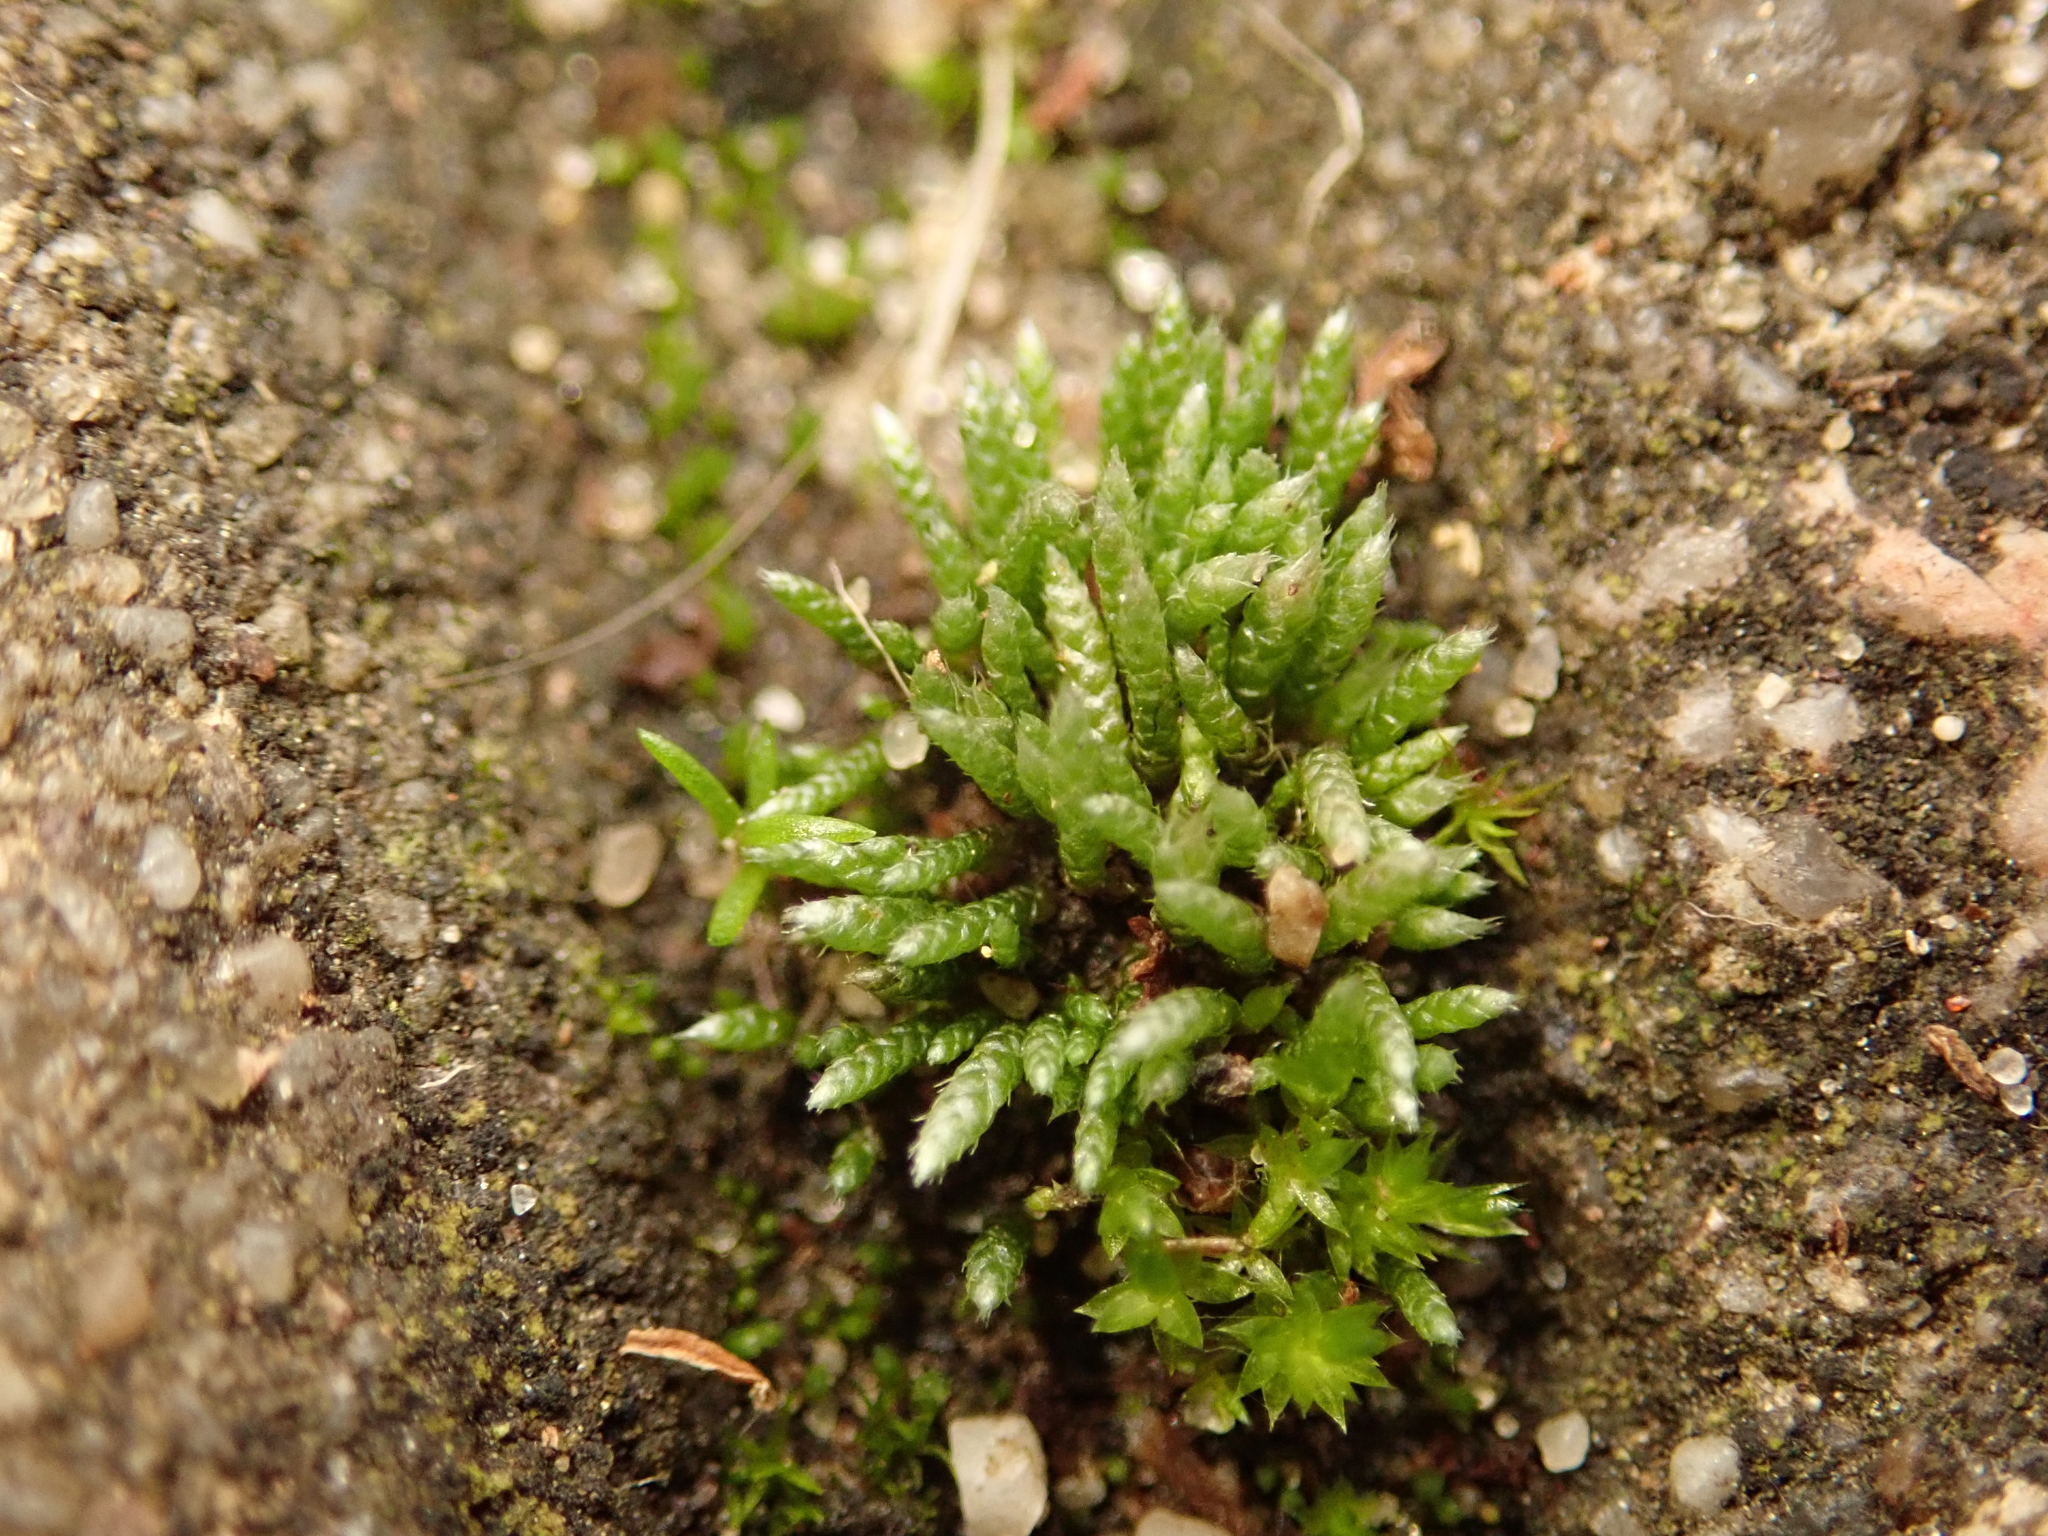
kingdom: Plantae
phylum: Bryophyta
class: Bryopsida
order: Bryales
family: Bryaceae
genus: Bryum
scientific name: Bryum argenteum
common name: Silver-moss
